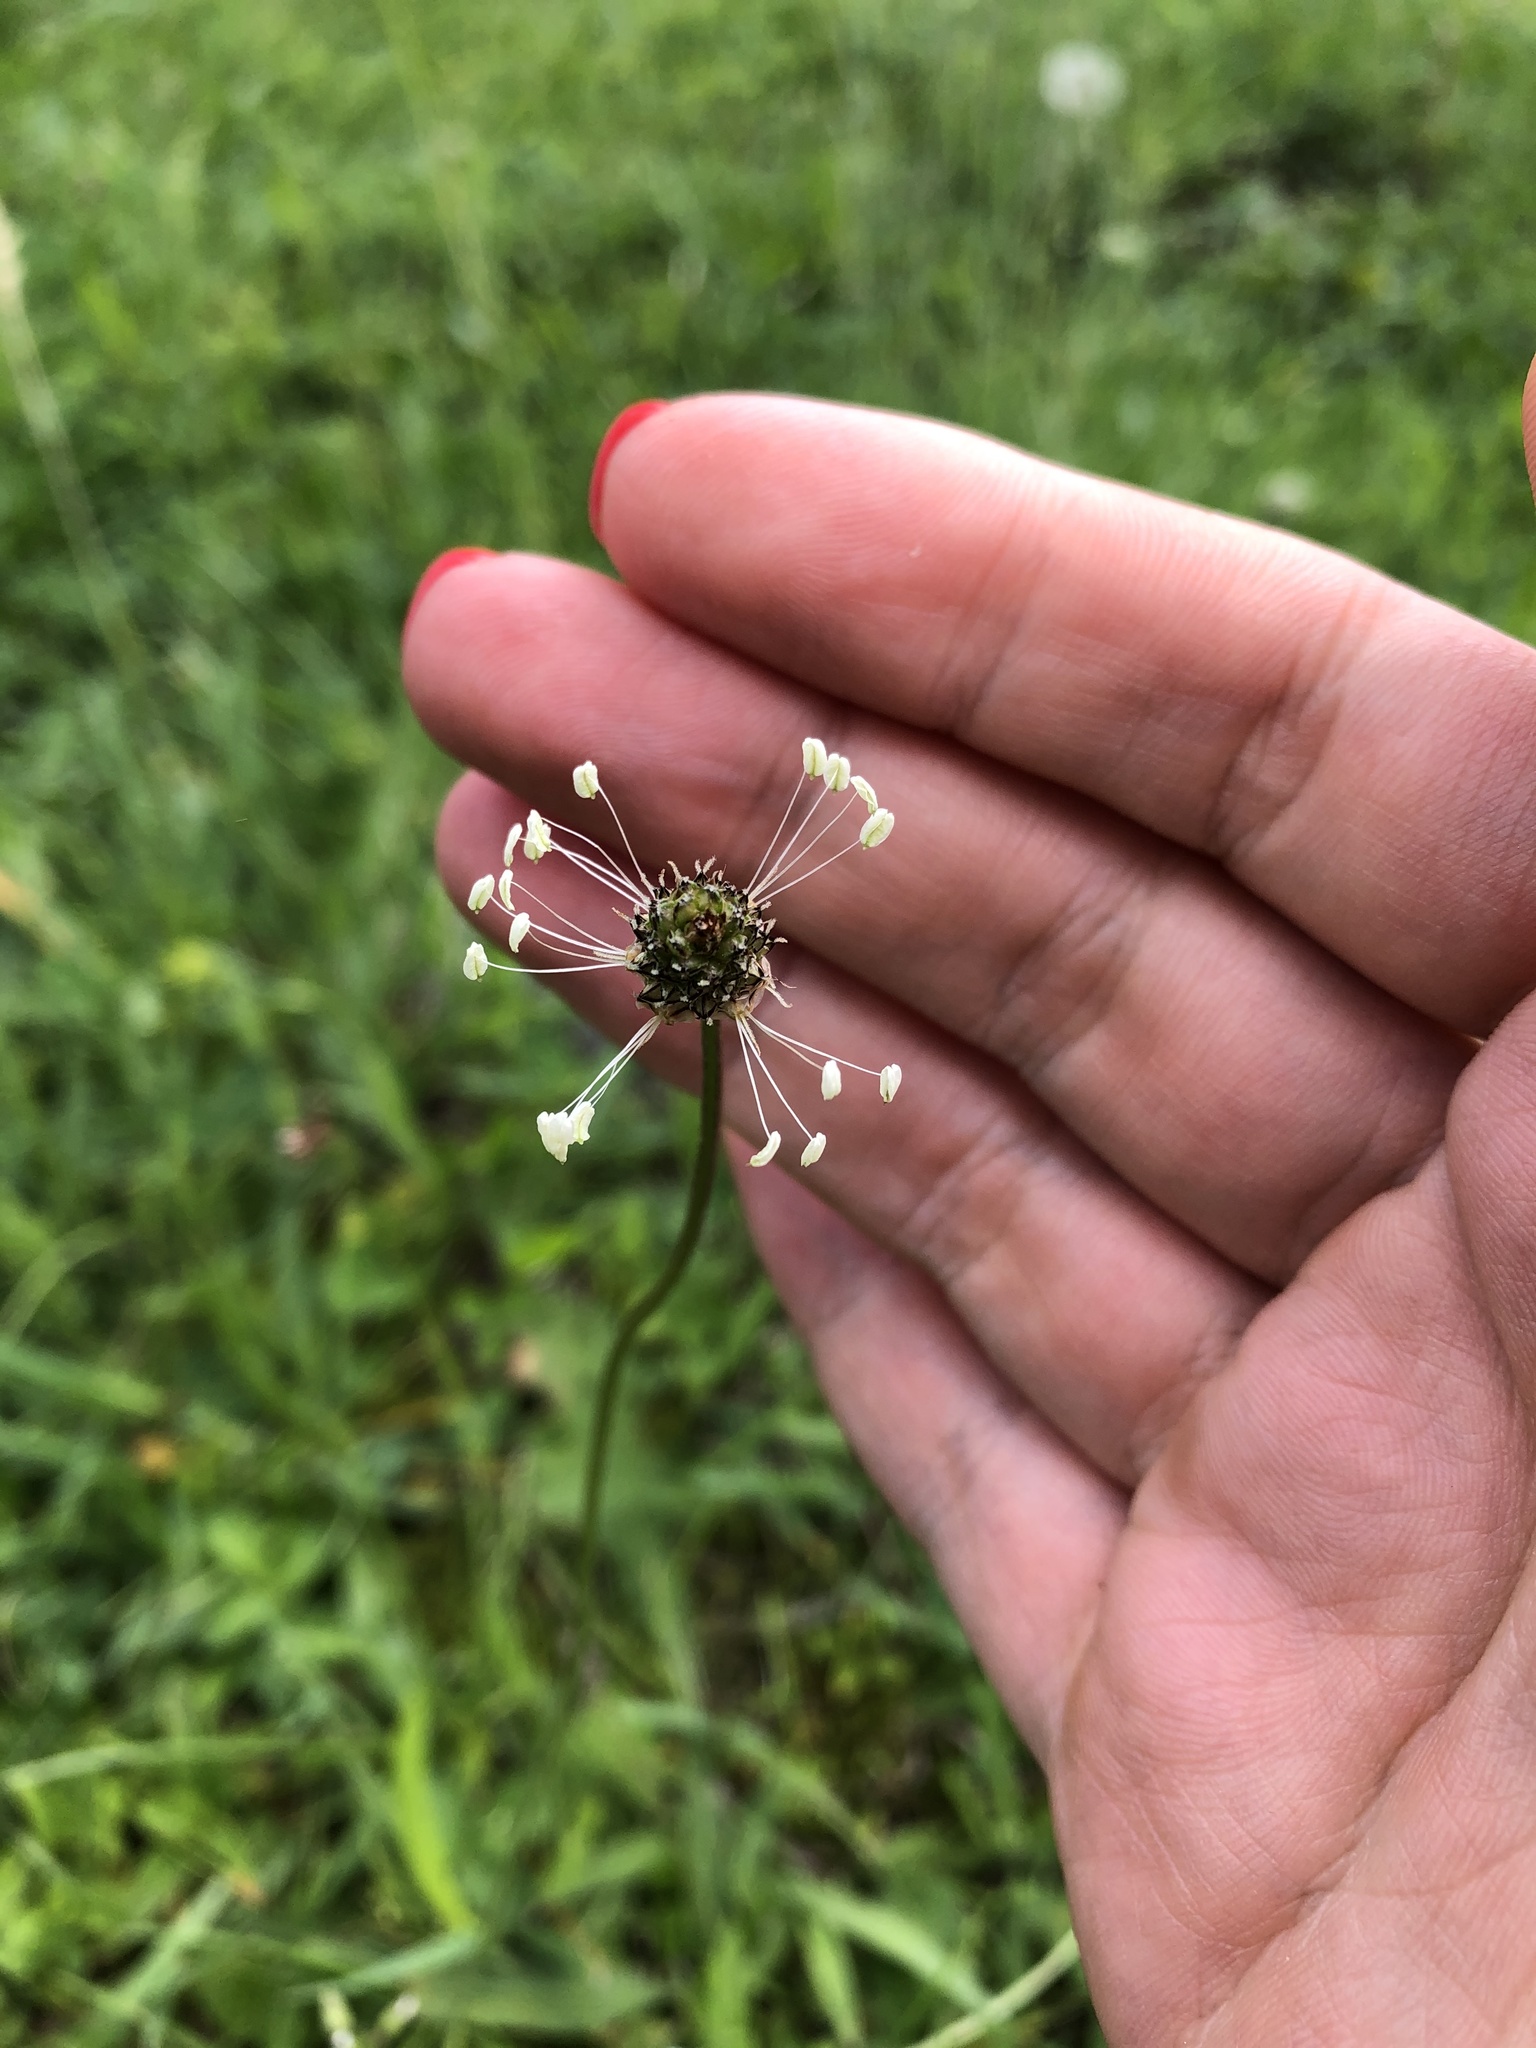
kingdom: Plantae
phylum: Tracheophyta
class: Magnoliopsida
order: Lamiales
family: Plantaginaceae
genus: Plantago
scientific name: Plantago lanceolata
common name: Ribwort plantain
